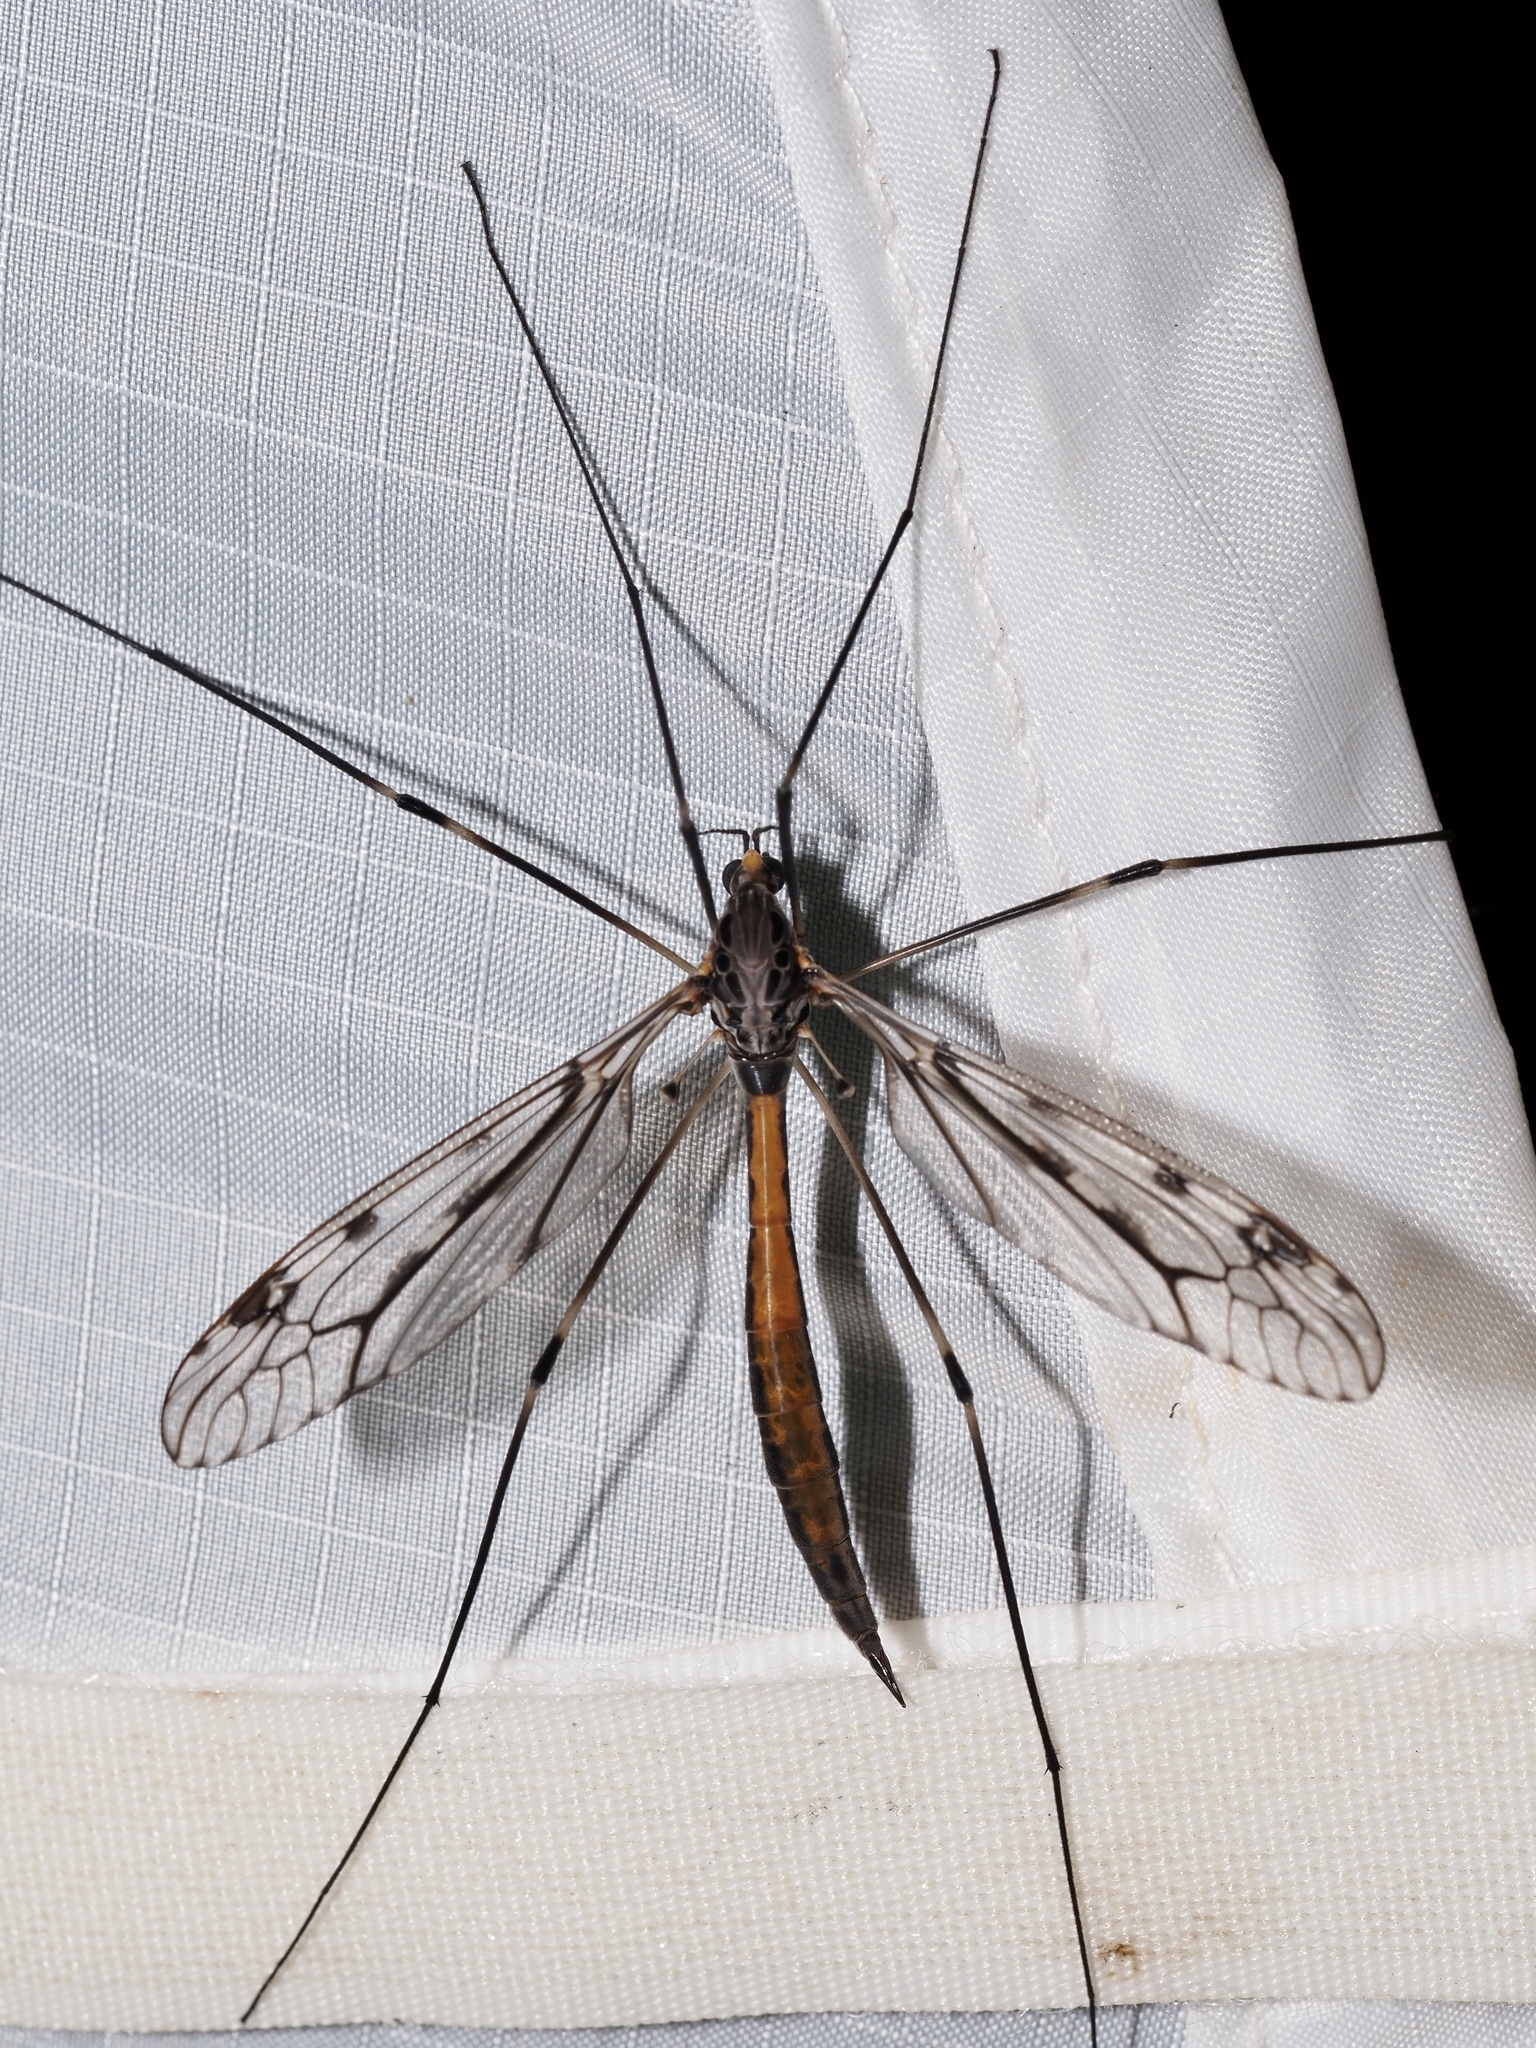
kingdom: Animalia
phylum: Arthropoda
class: Insecta
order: Diptera
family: Tipulidae
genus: Tipula
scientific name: Tipula abdominalis
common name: Giant crane fly
